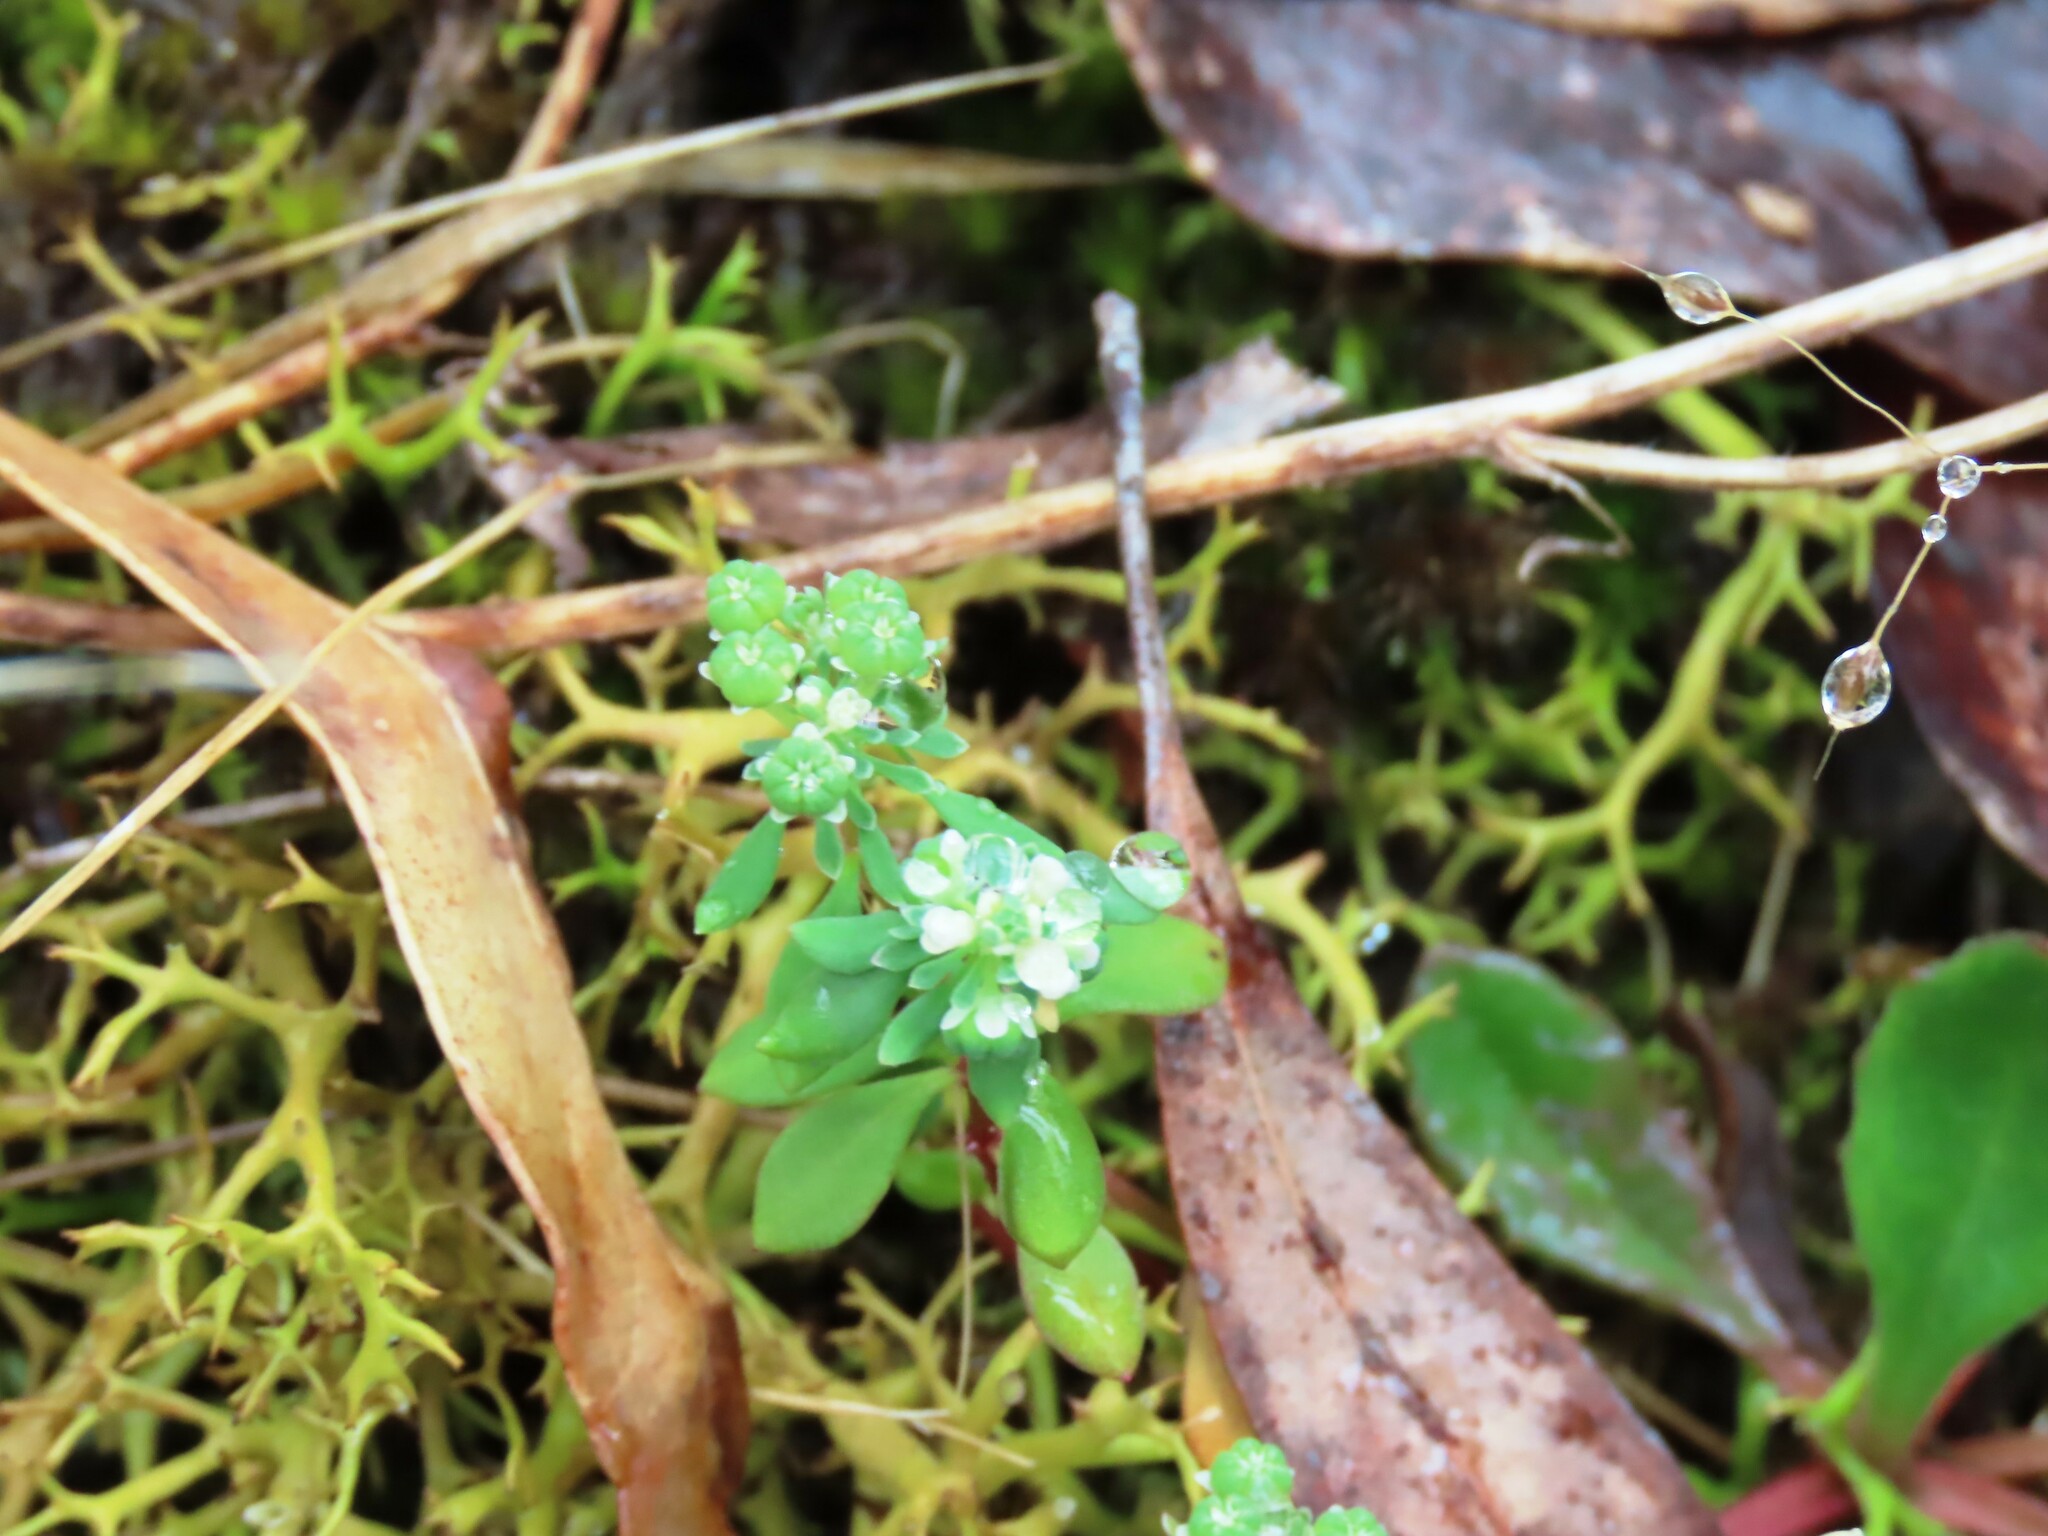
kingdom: Plantae
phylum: Tracheophyta
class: Magnoliopsida
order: Malpighiales
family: Phyllanthaceae
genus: Poranthera
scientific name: Poranthera microphylla
